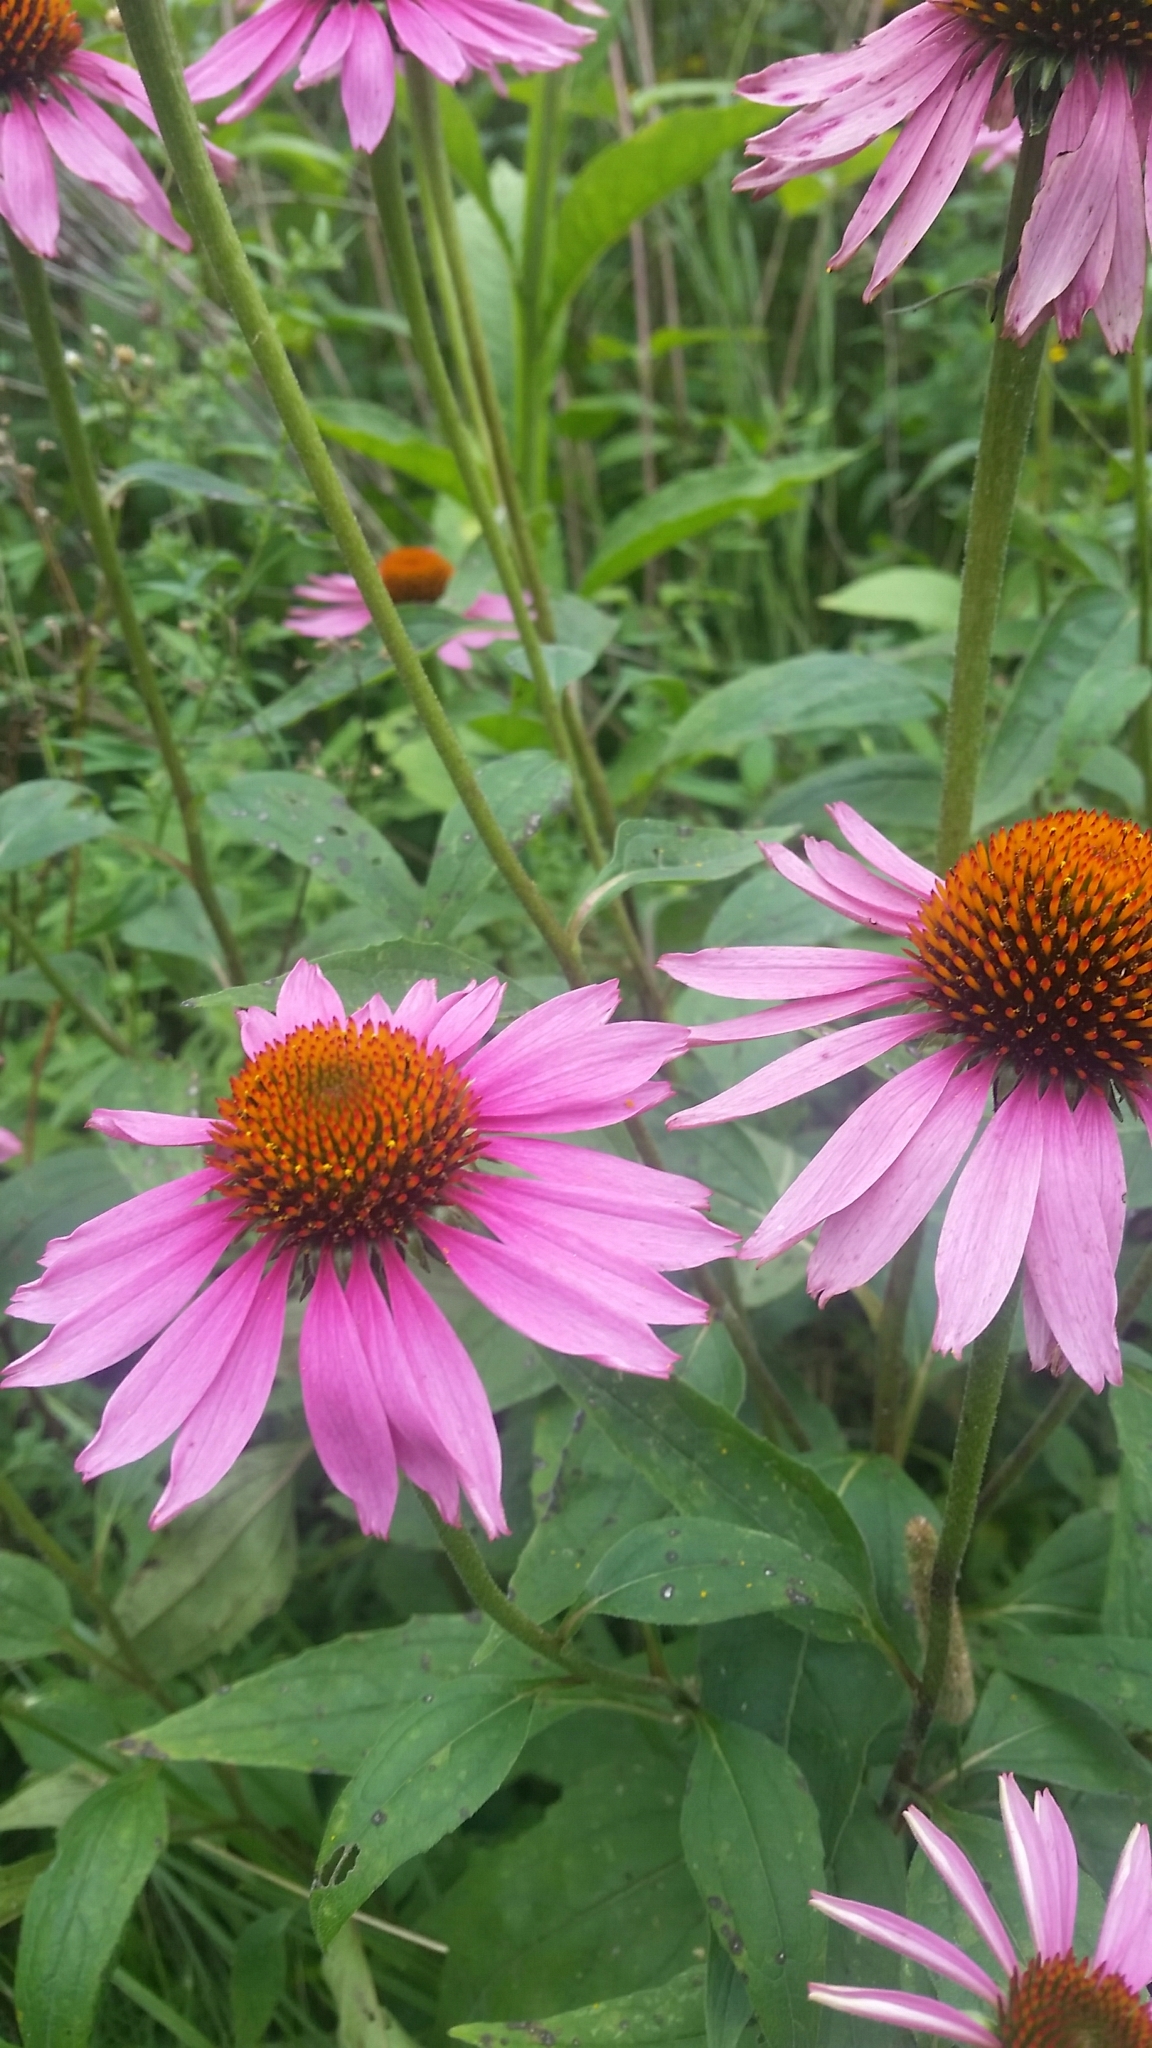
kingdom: Plantae
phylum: Tracheophyta
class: Magnoliopsida
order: Asterales
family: Asteraceae
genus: Echinacea
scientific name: Echinacea purpurea
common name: Broad-leaved purple coneflower
